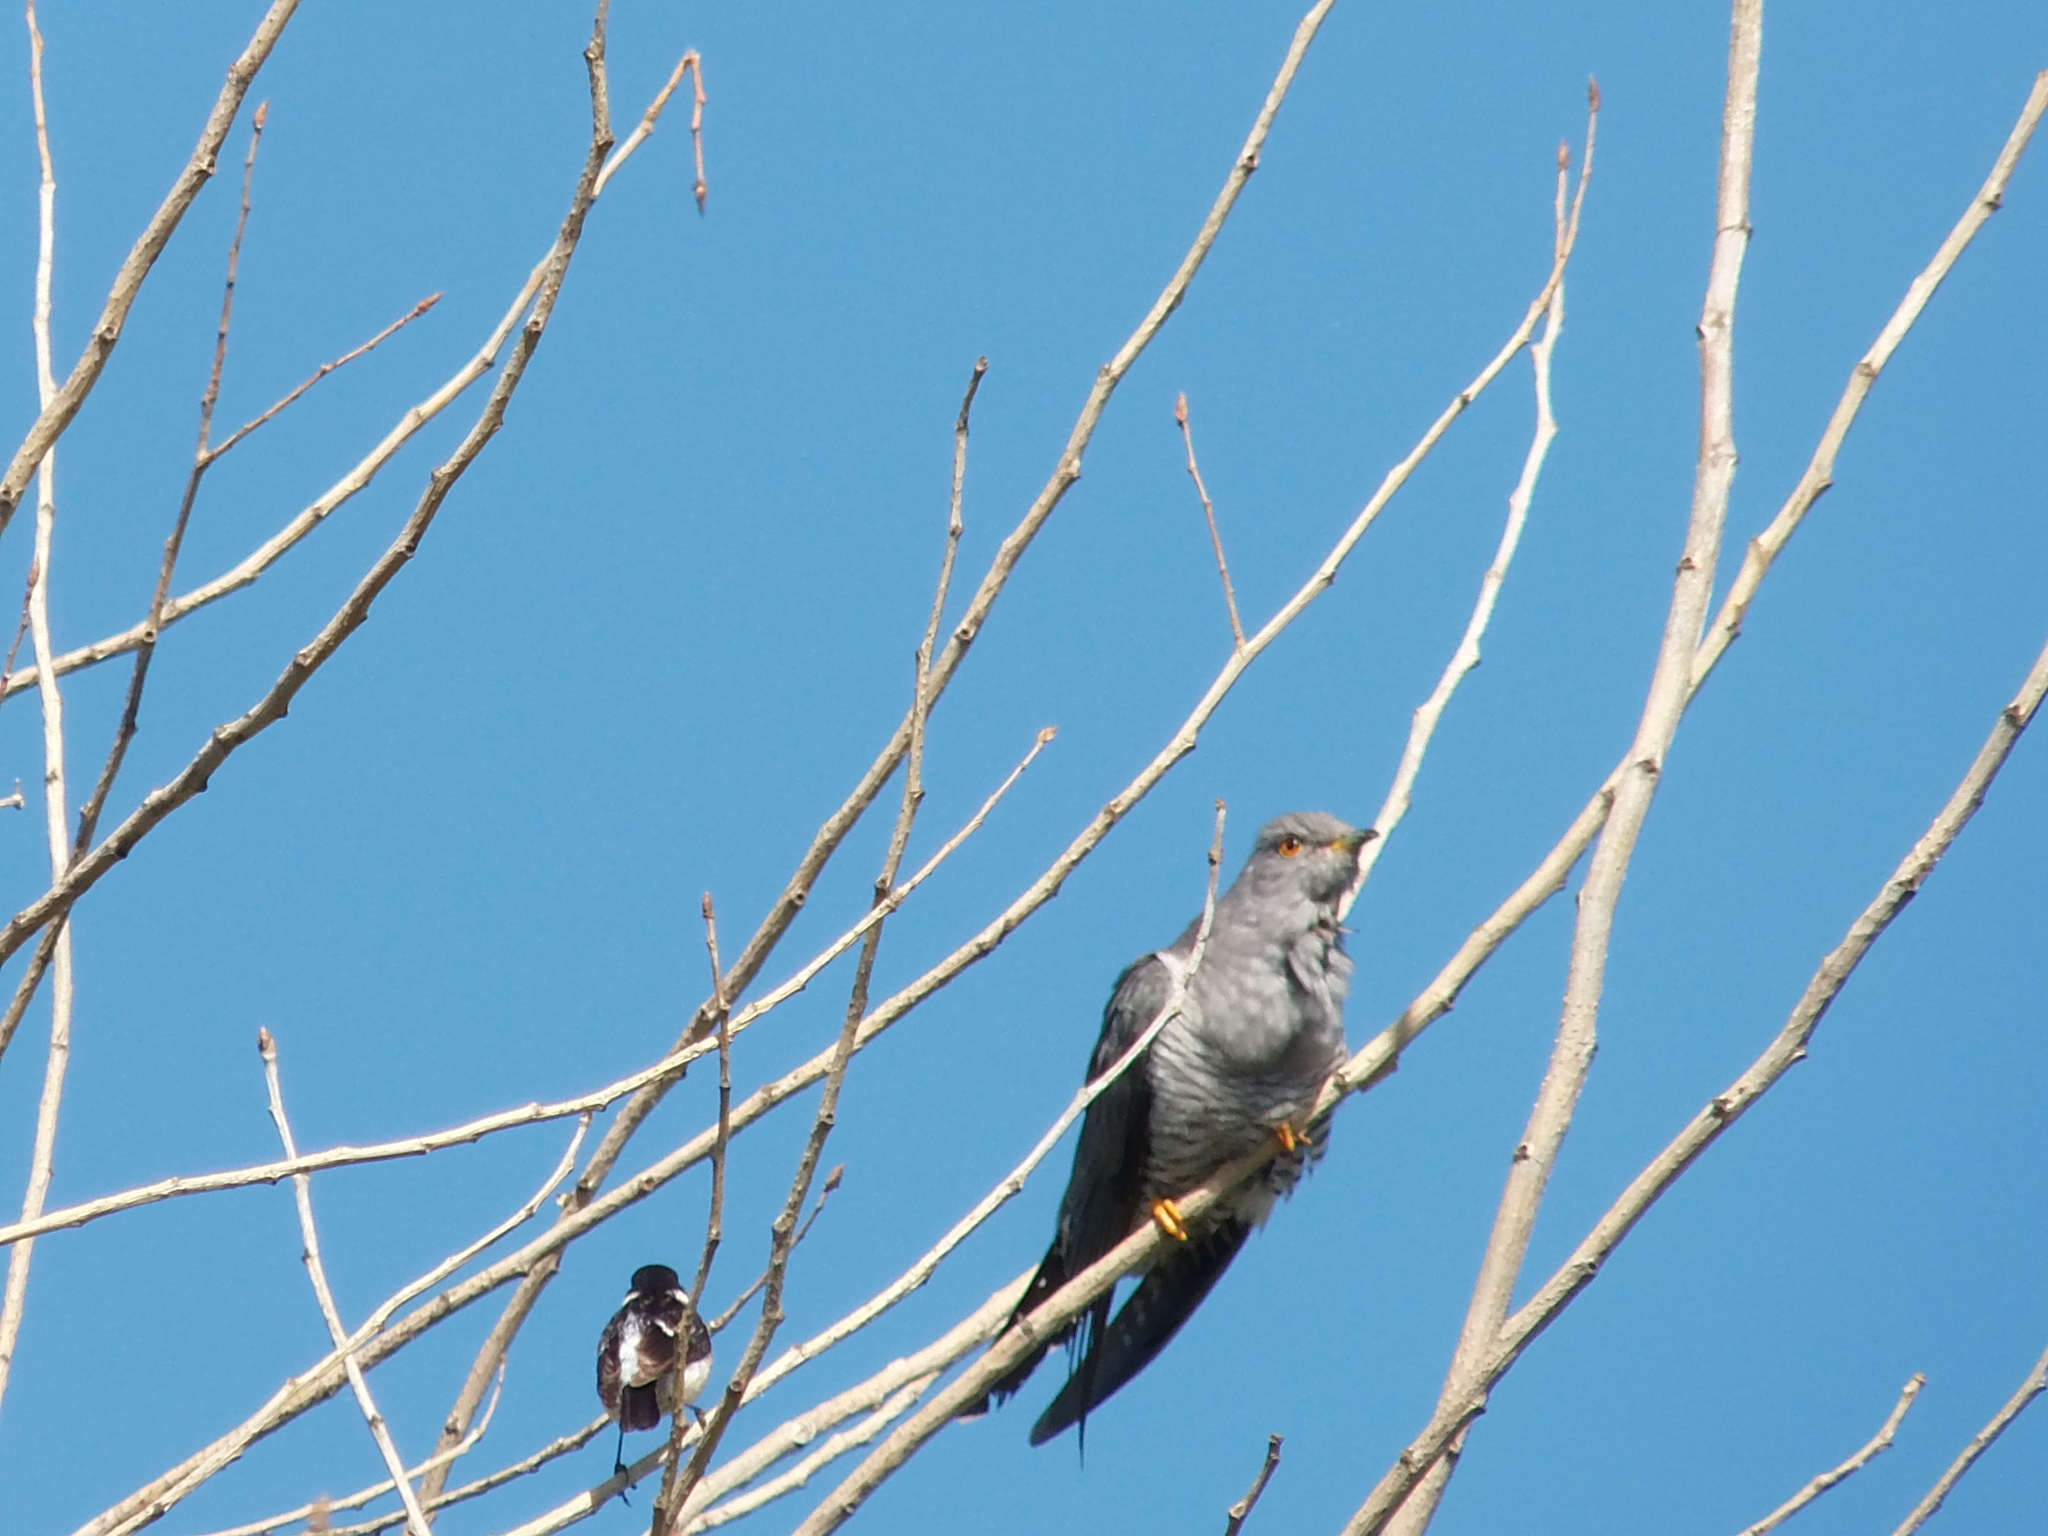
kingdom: Animalia
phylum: Chordata
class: Aves
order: Cuculiformes
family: Cuculidae
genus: Cuculus
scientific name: Cuculus canorus
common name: Common cuckoo
